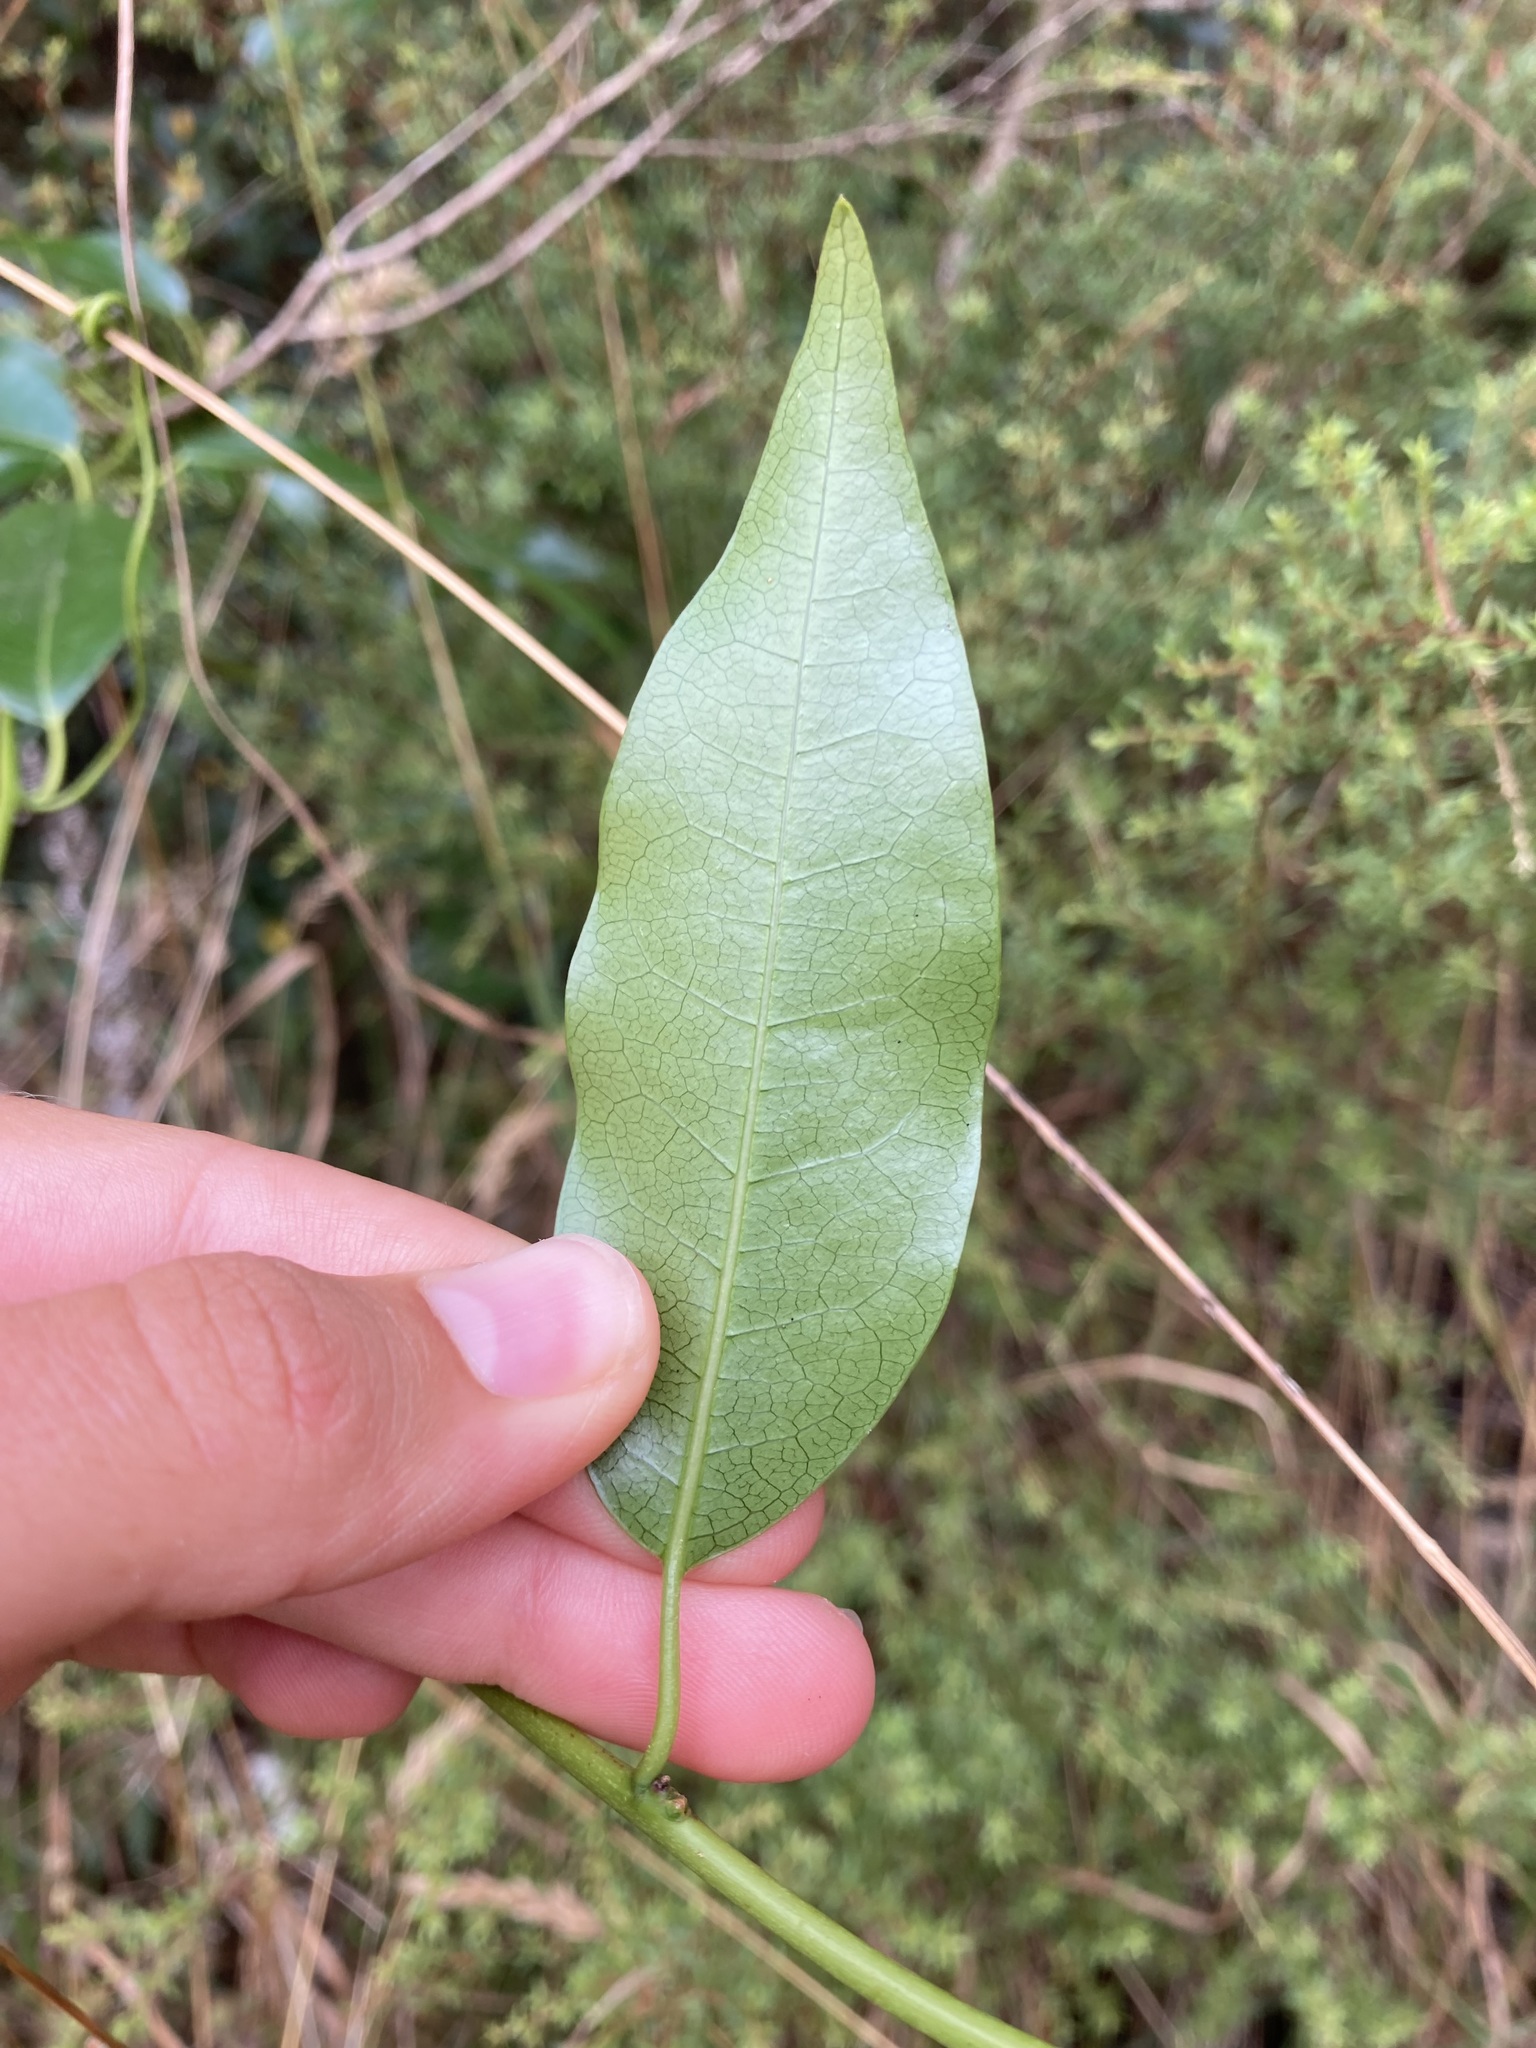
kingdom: Plantae
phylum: Tracheophyta
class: Magnoliopsida
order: Malpighiales
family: Passifloraceae
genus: Passiflora
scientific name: Passiflora tetrandra
